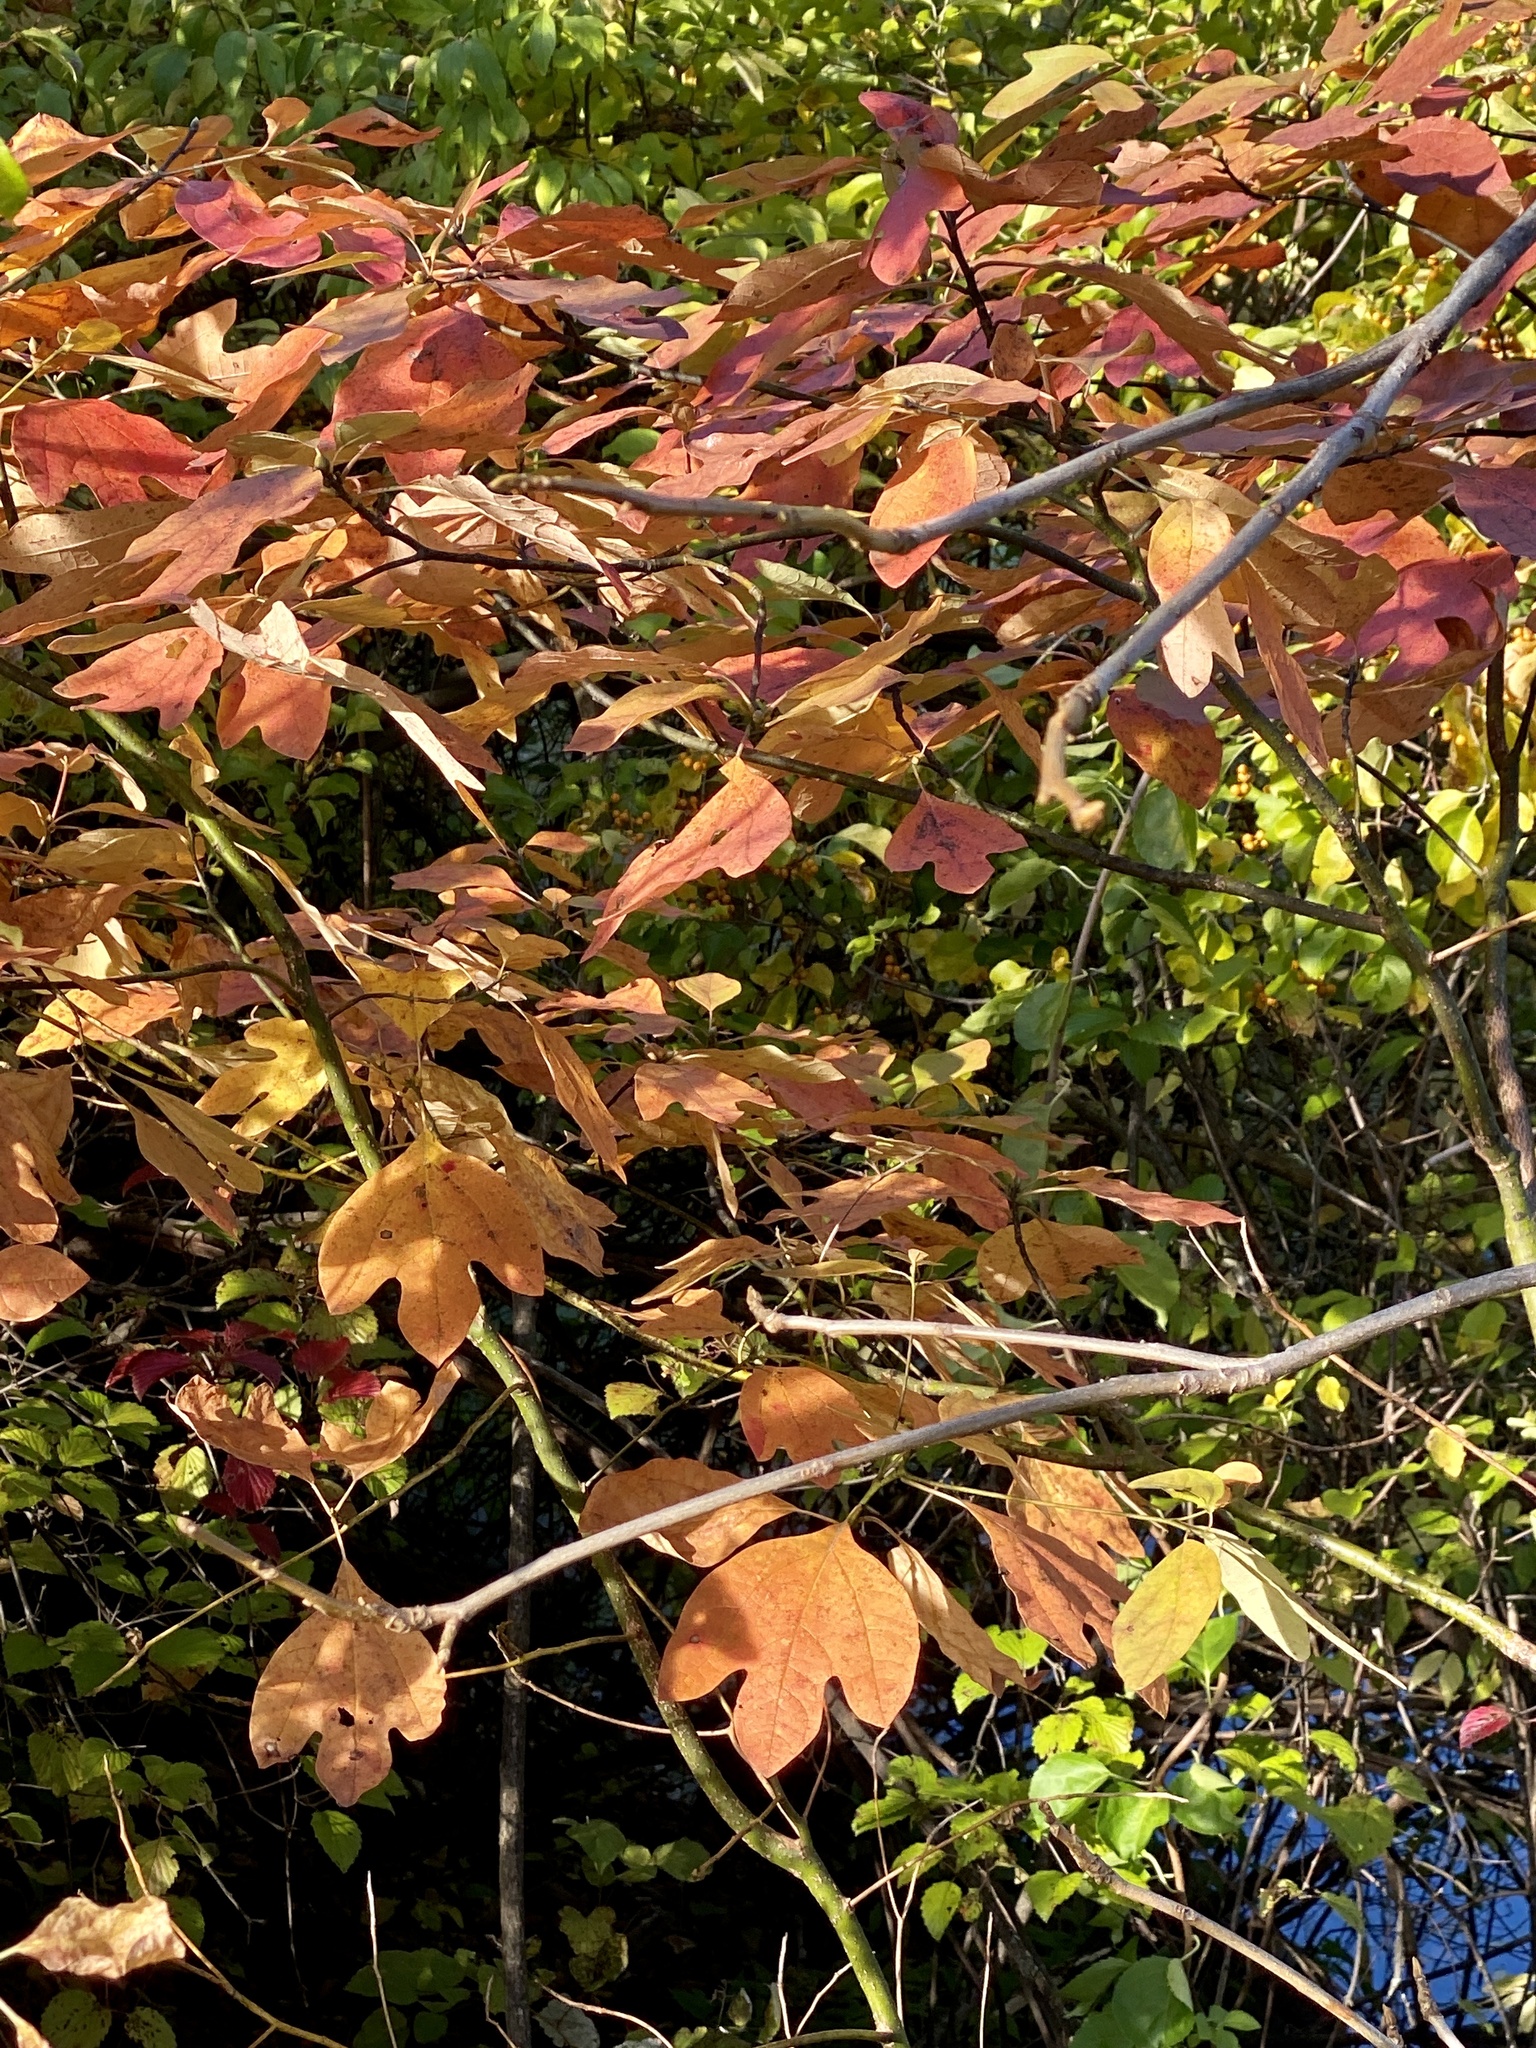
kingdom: Plantae
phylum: Tracheophyta
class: Magnoliopsida
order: Laurales
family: Lauraceae
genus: Sassafras
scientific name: Sassafras albidum
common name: Sassafras
